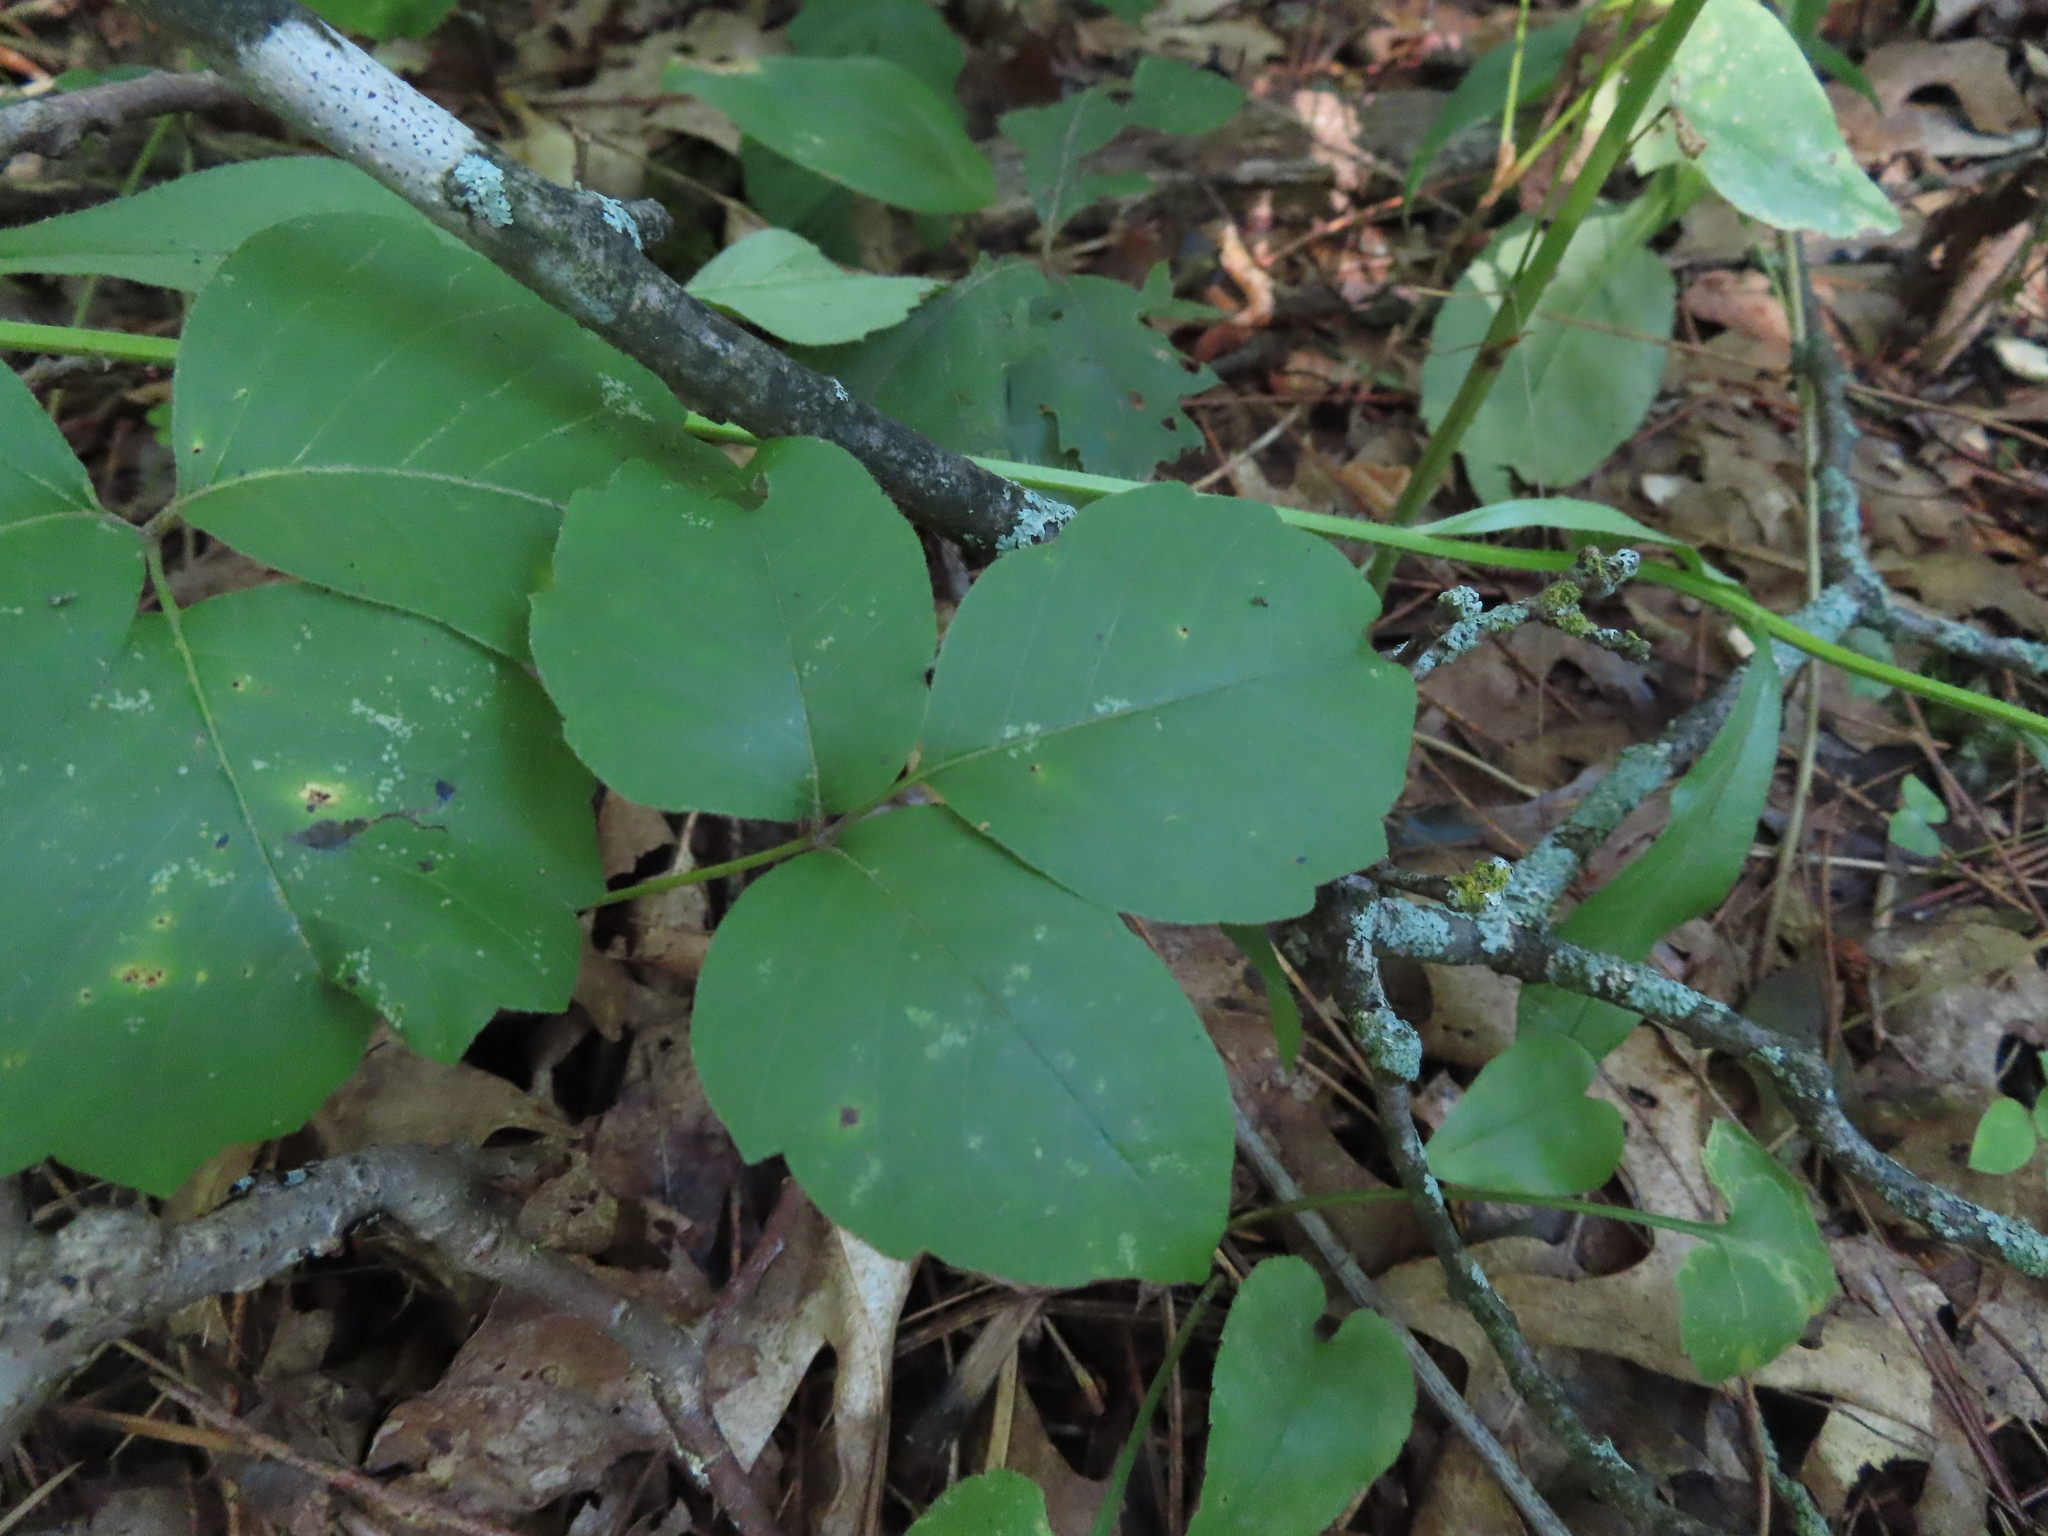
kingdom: Plantae
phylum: Tracheophyta
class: Magnoliopsida
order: Sapindales
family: Anacardiaceae
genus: Toxicodendron
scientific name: Toxicodendron rydbergii
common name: Rydberg's poison-ivy
